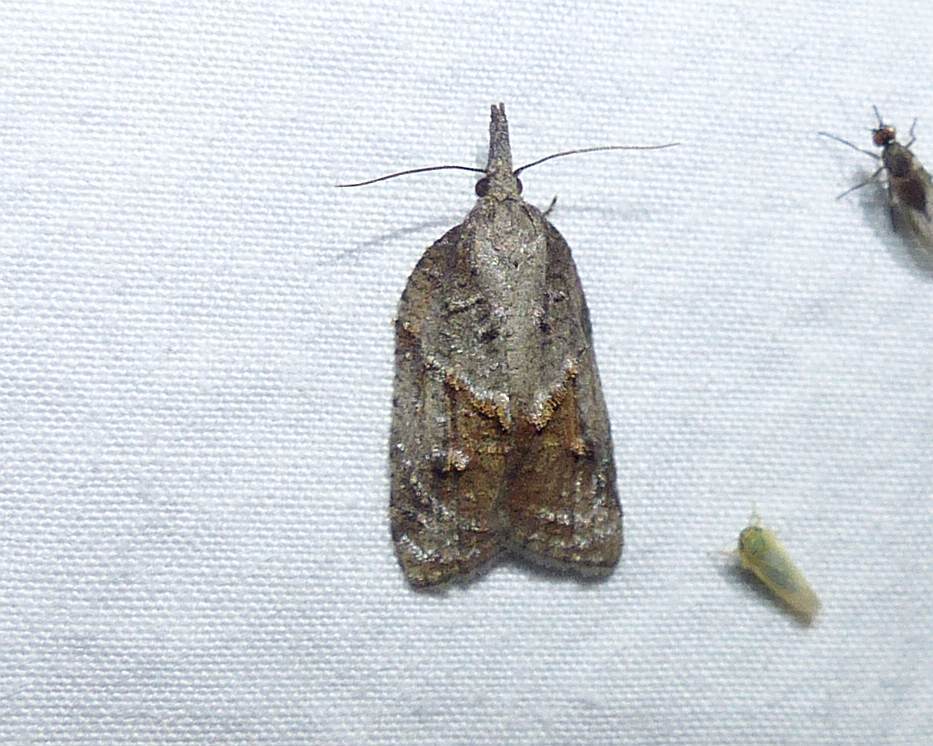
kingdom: Animalia
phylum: Arthropoda
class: Insecta
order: Lepidoptera
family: Tortricidae
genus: Platynota
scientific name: Platynota idaeusalis
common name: Tufted apple bud moth
